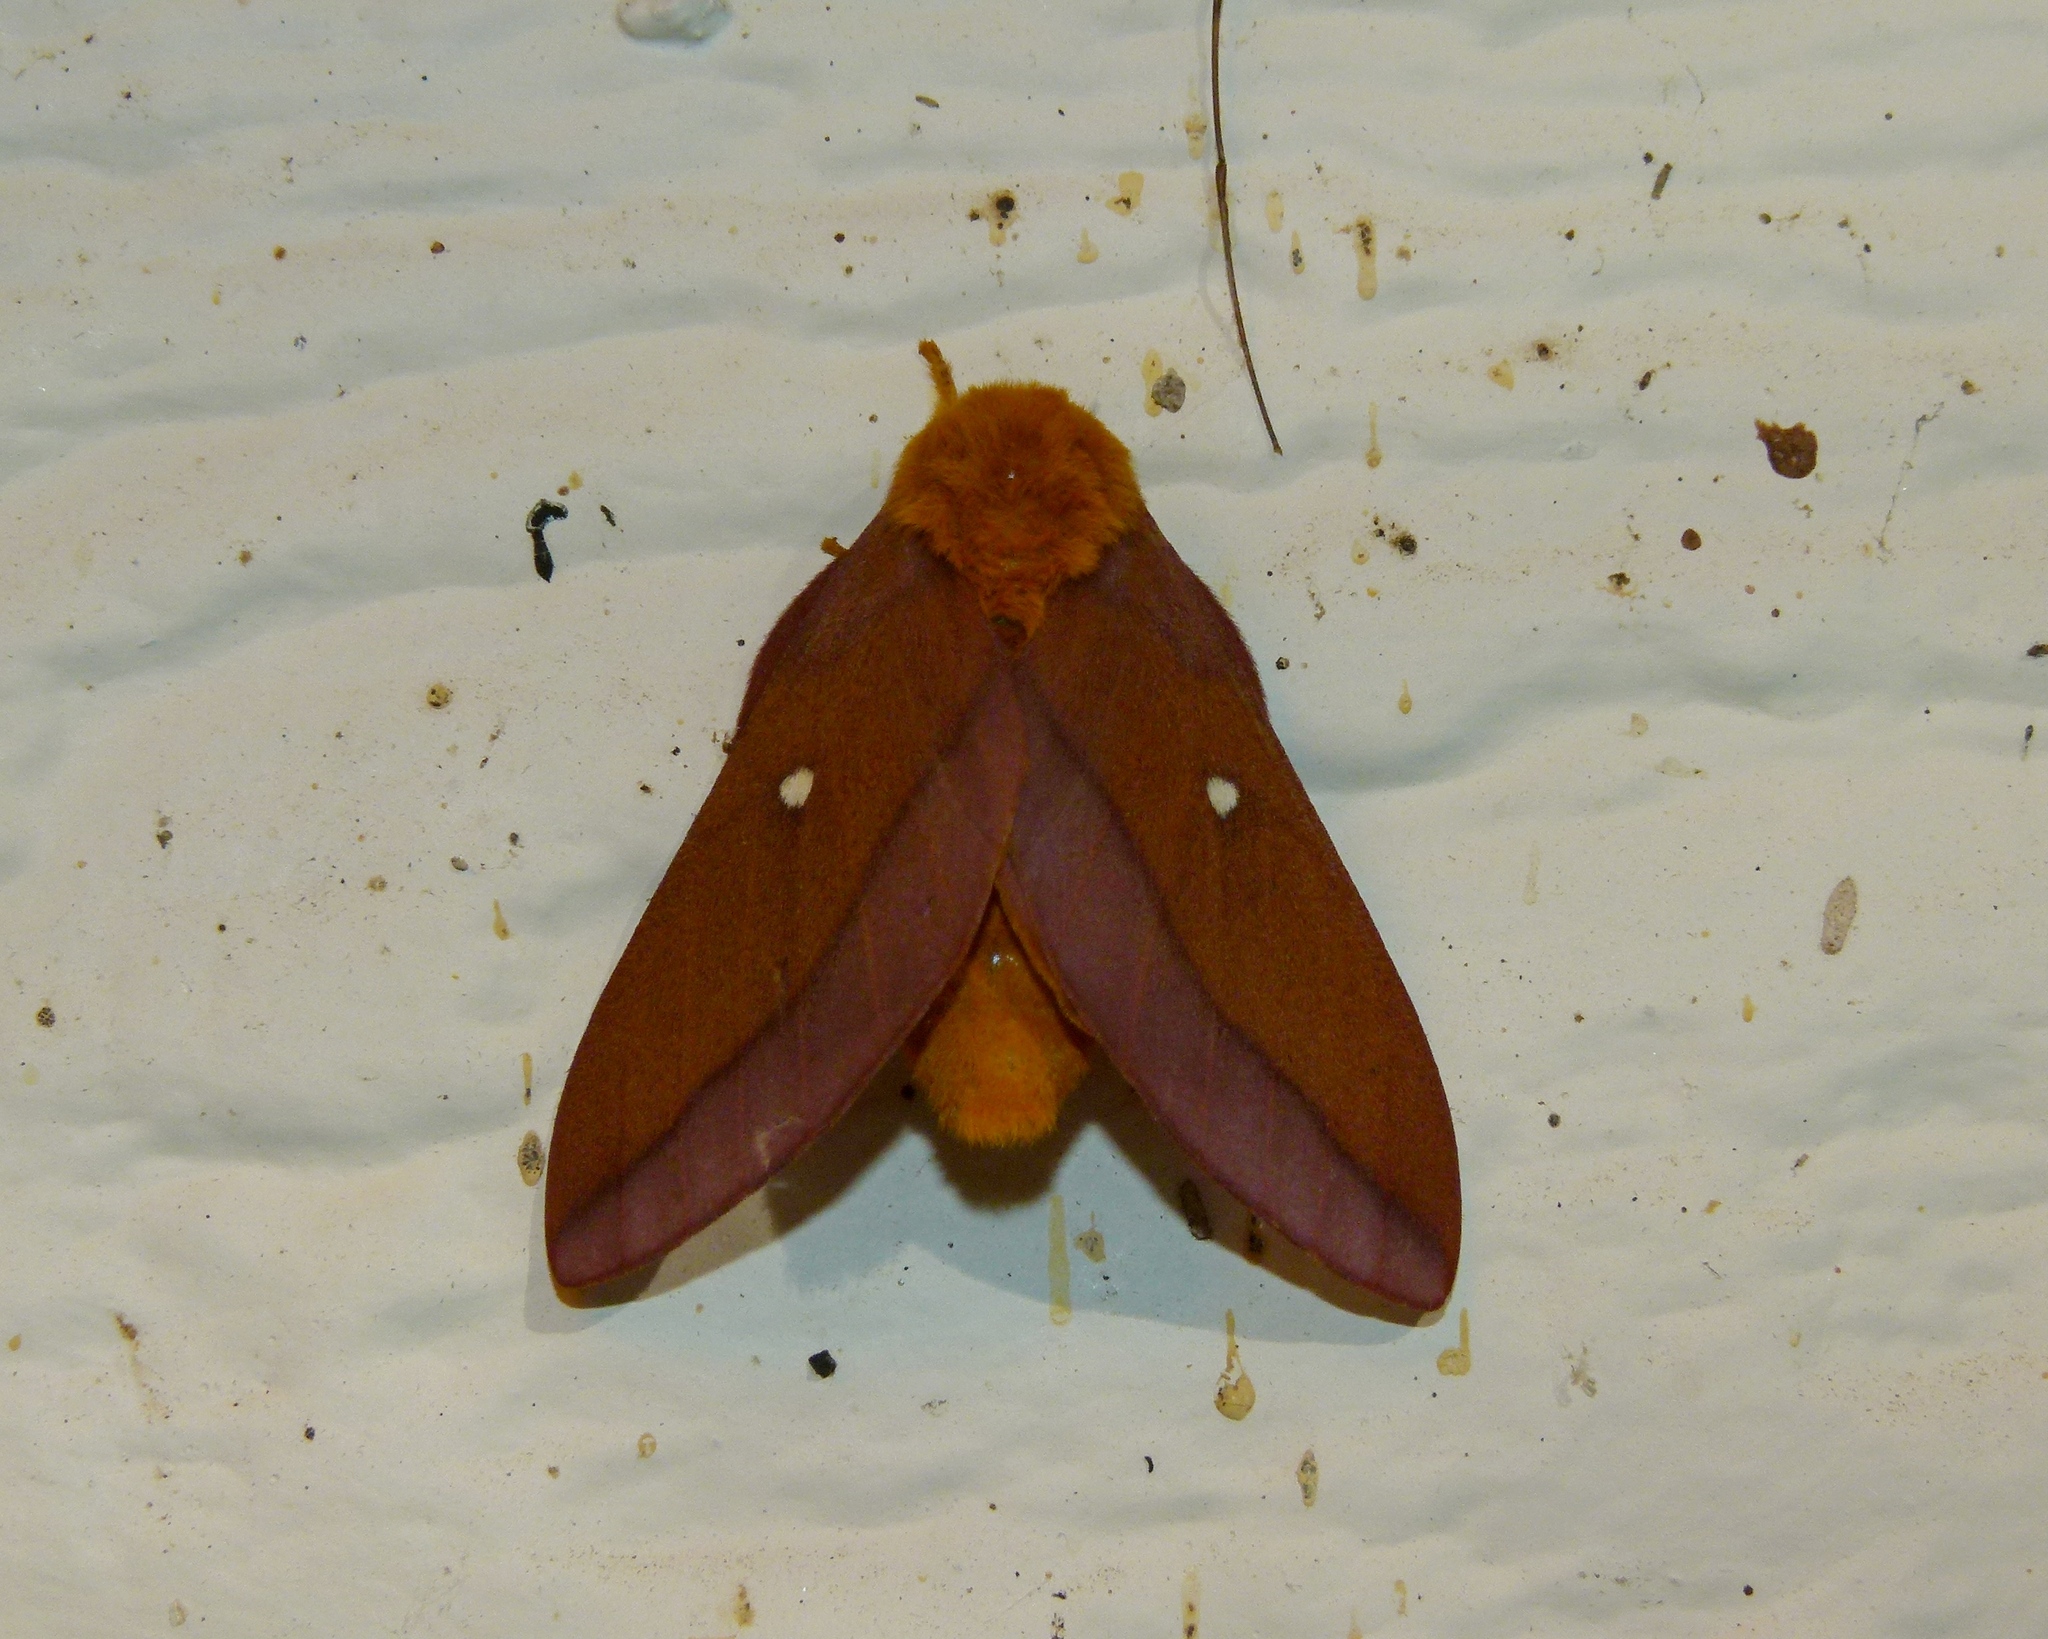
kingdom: Animalia
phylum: Arthropoda
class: Insecta
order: Lepidoptera
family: Saturniidae
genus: Anisota
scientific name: Anisota virginiensis
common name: Pink striped oakworm moth
